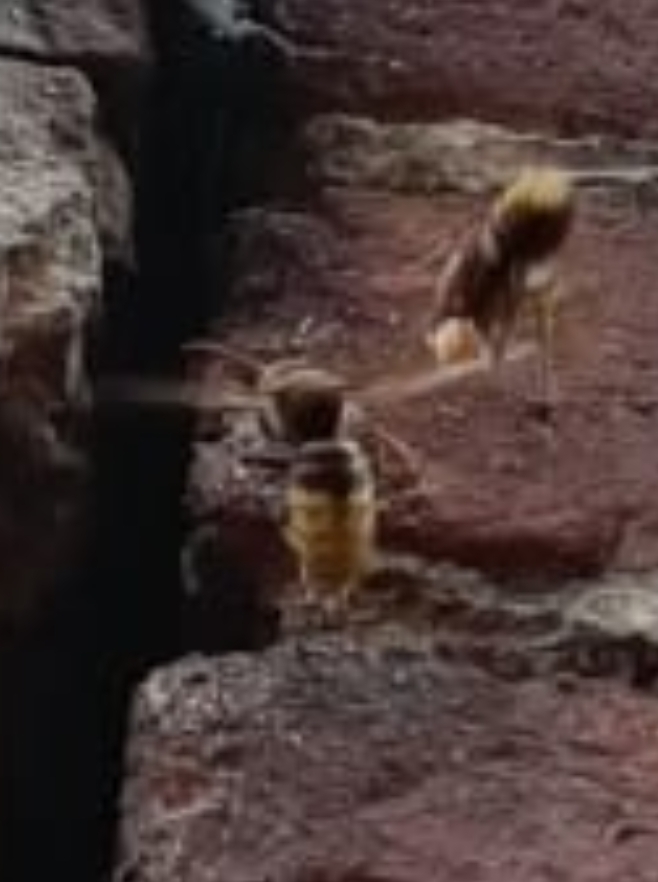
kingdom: Animalia
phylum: Arthropoda
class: Insecta
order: Hymenoptera
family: Vespidae
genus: Vespa
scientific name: Vespa crabro
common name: Hornet
